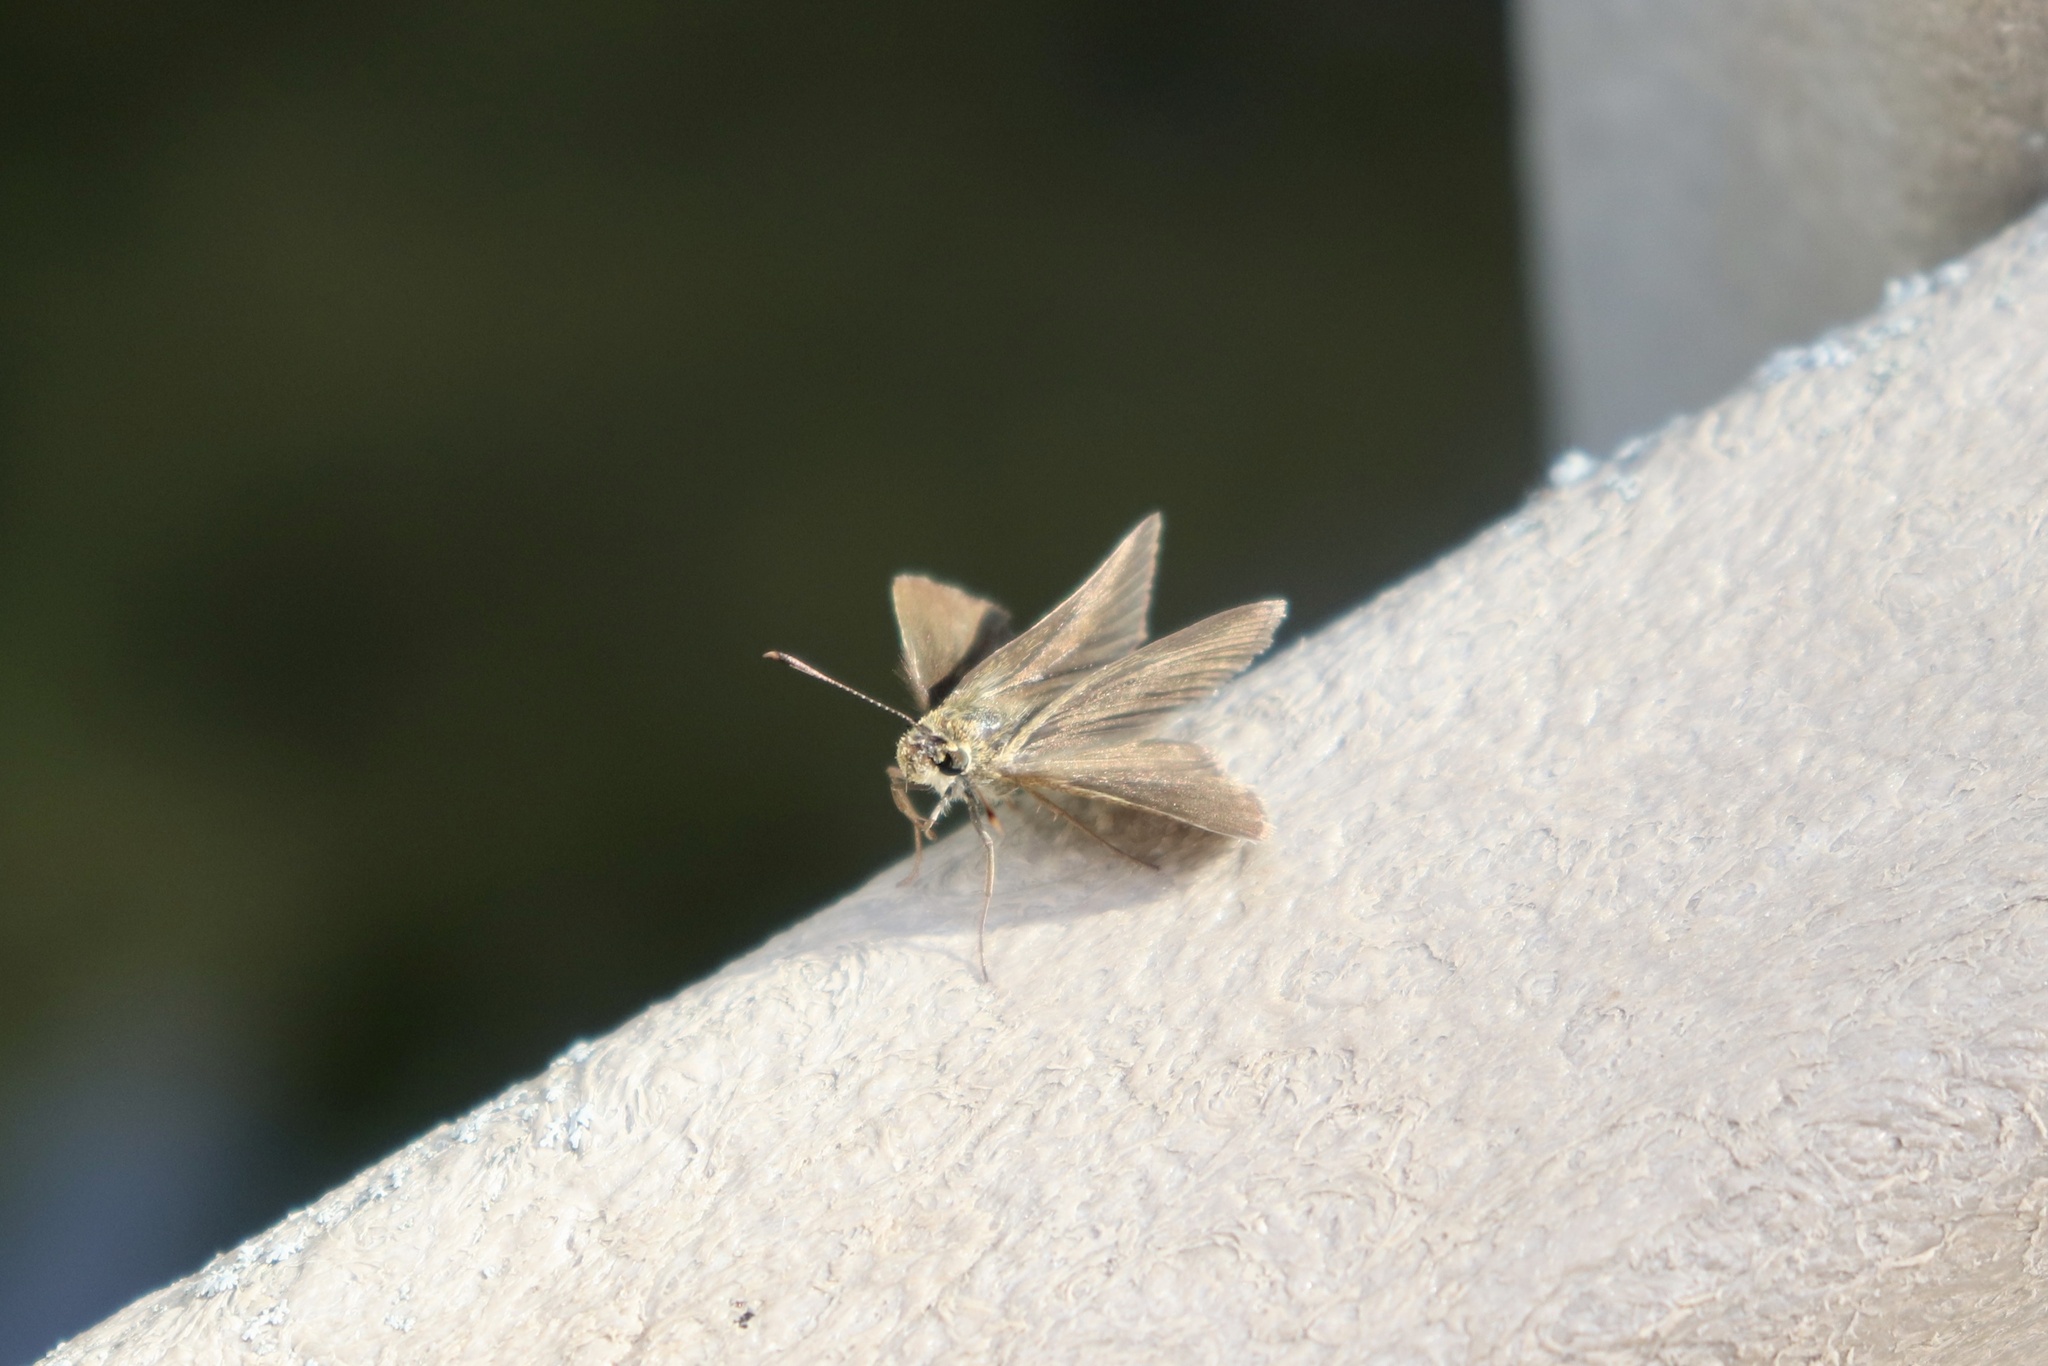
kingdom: Animalia
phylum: Arthropoda
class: Insecta
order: Lepidoptera
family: Hesperiidae
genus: Nastra
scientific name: Nastra lherminier
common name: Swarthy skipper
